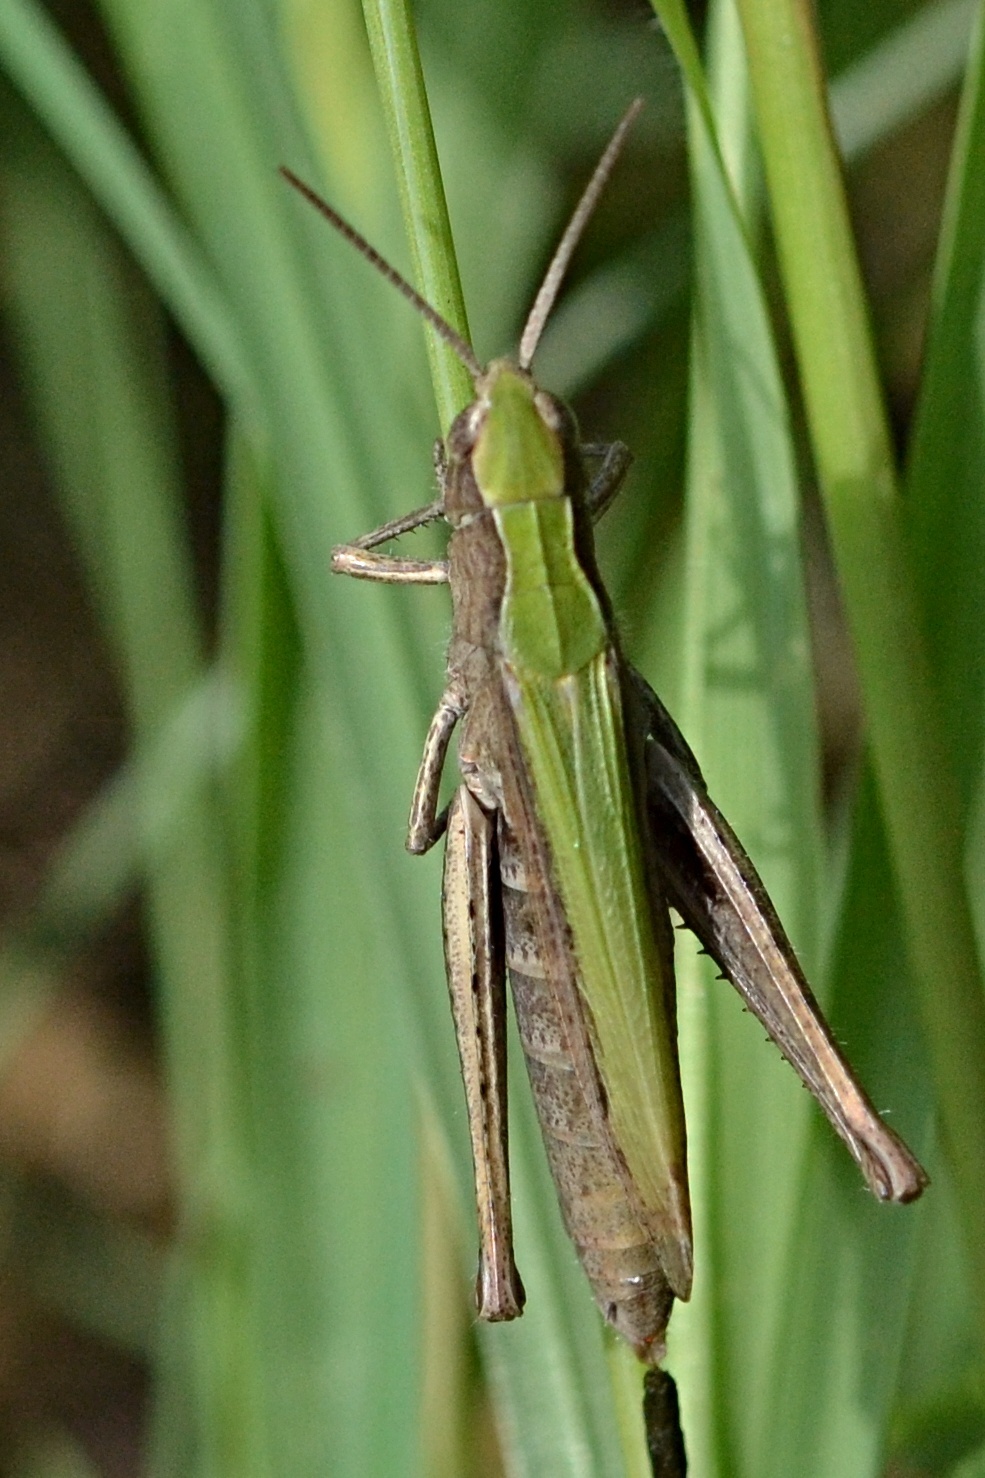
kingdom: Animalia
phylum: Arthropoda
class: Insecta
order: Orthoptera
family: Acrididae
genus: Chorthippus
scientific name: Chorthippus dorsatus
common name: Steppe grasshopper
